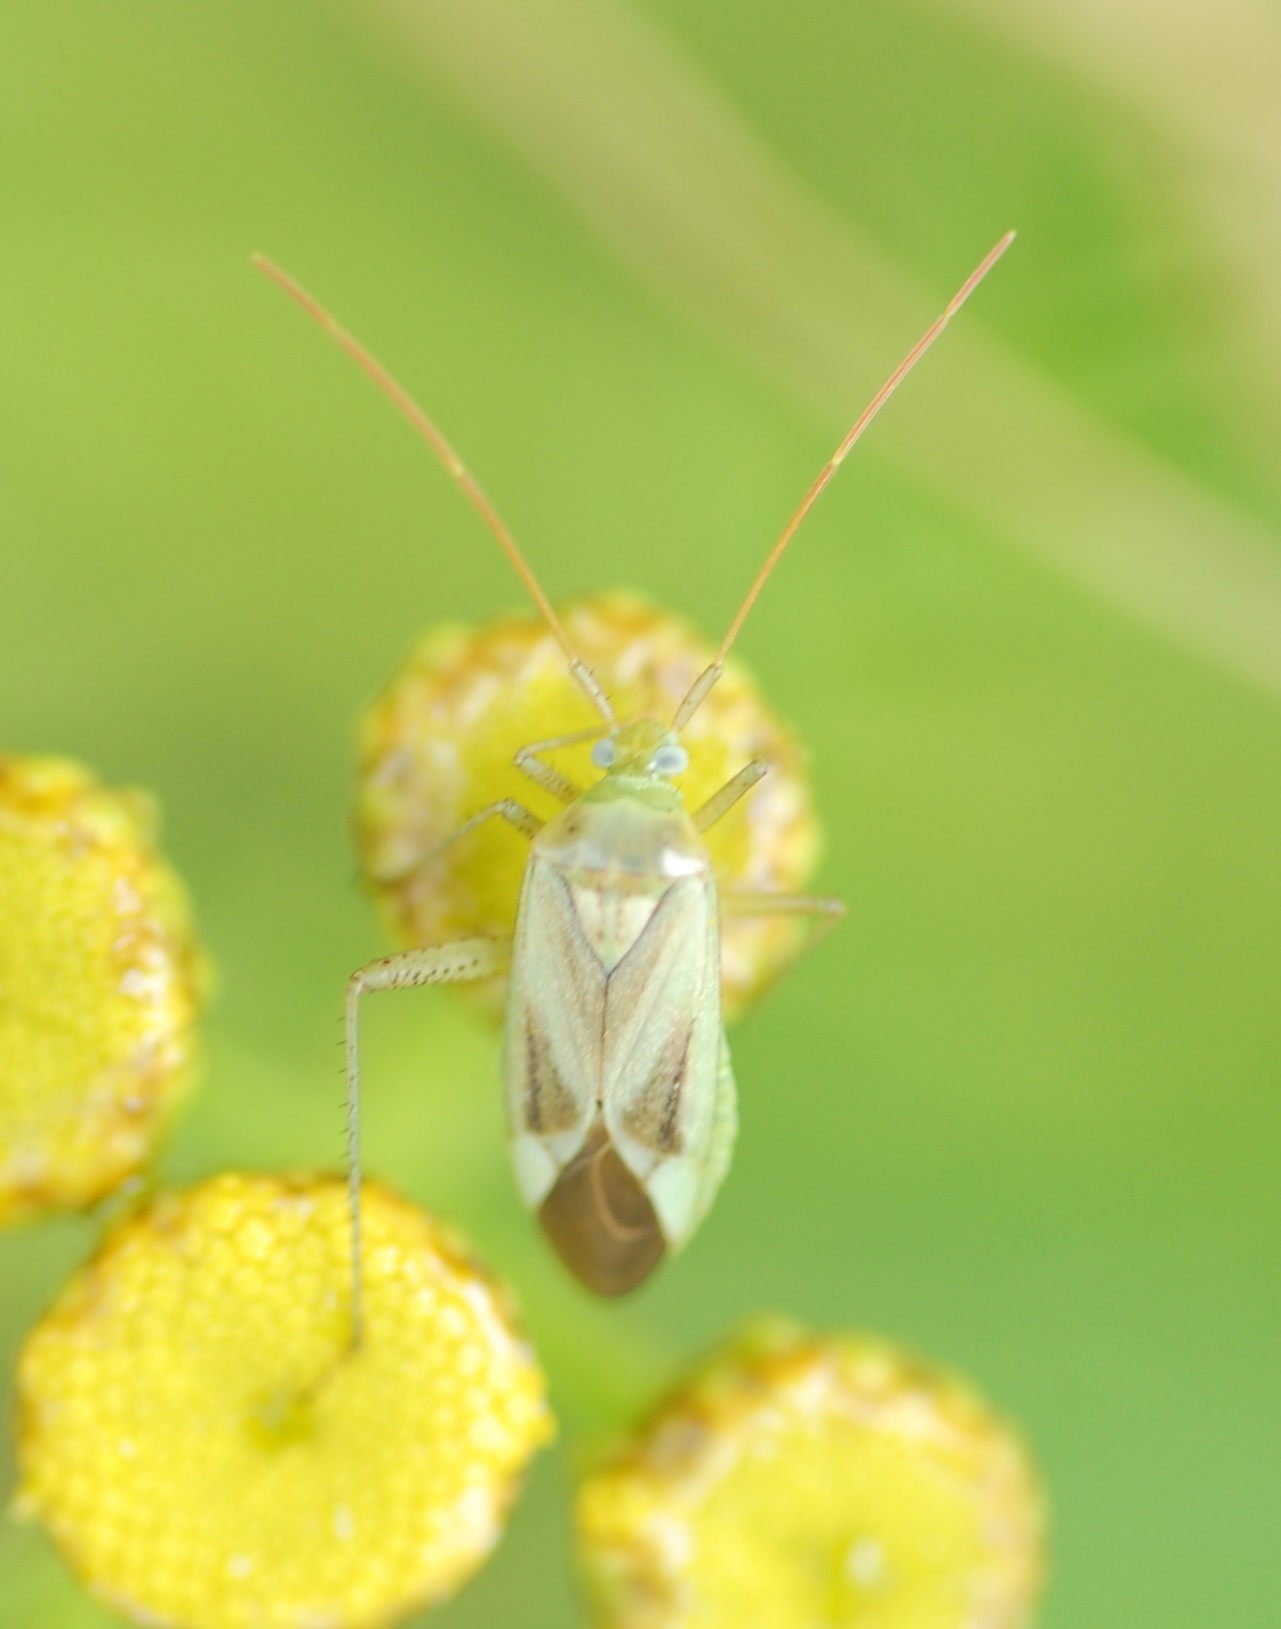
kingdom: Animalia
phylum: Arthropoda
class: Insecta
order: Hemiptera
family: Miridae
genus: Adelphocoris
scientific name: Adelphocoris lineolatus
